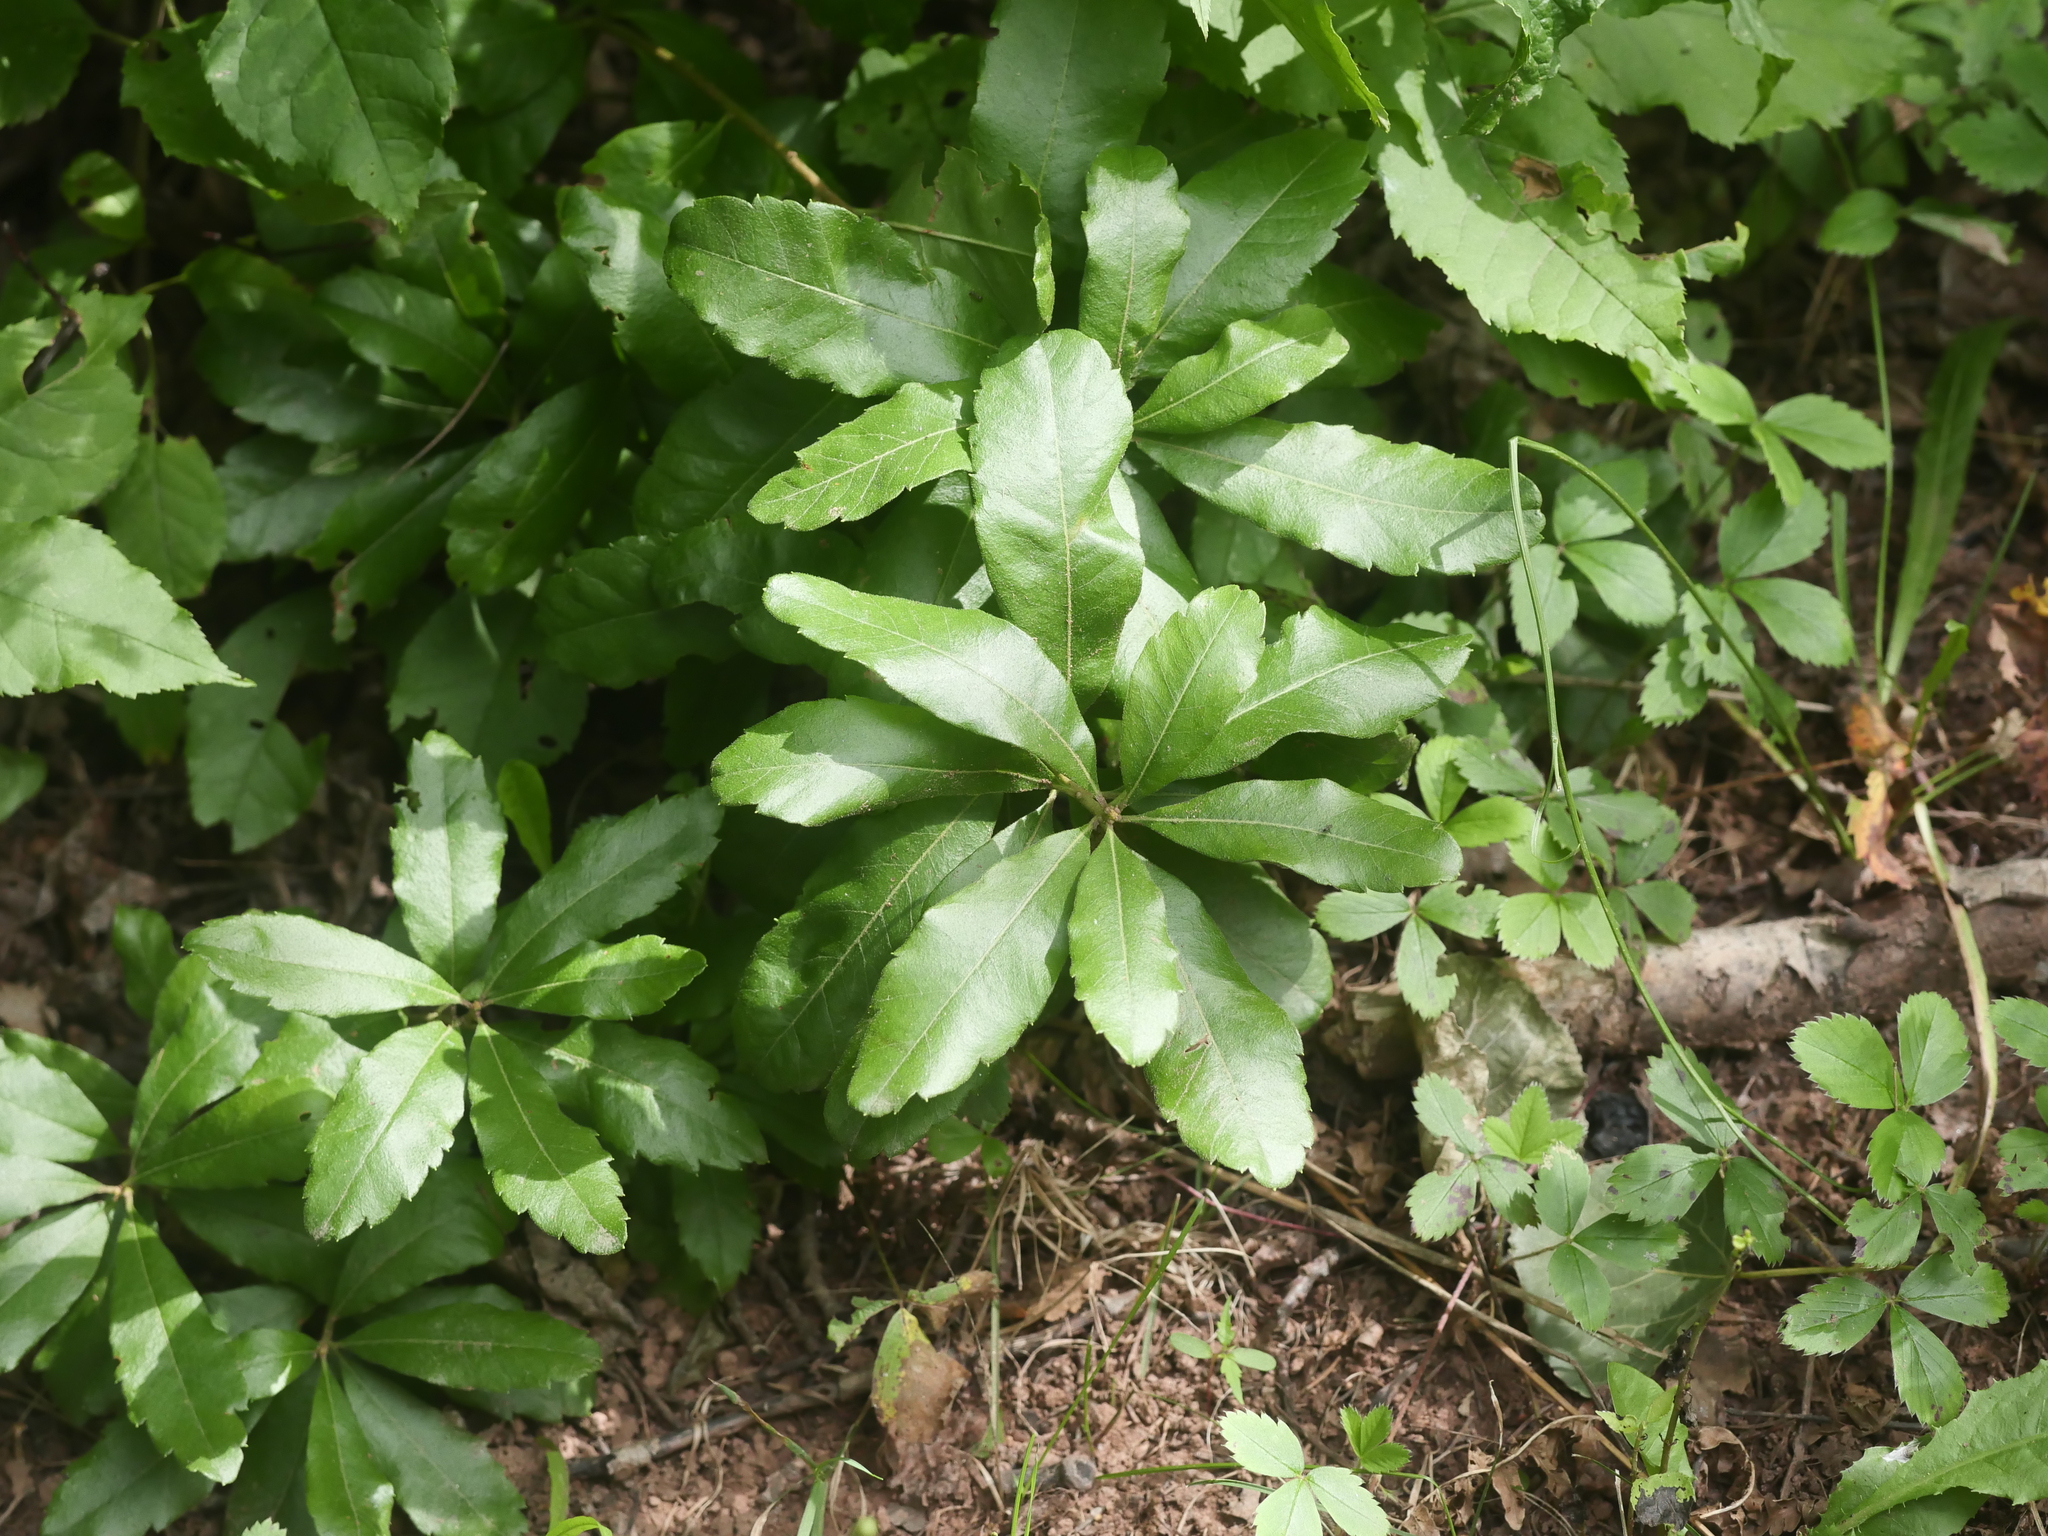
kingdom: Plantae
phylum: Tracheophyta
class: Magnoliopsida
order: Fagales
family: Myricaceae
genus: Morella
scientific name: Morella pensylvanica
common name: Northern bayberry
